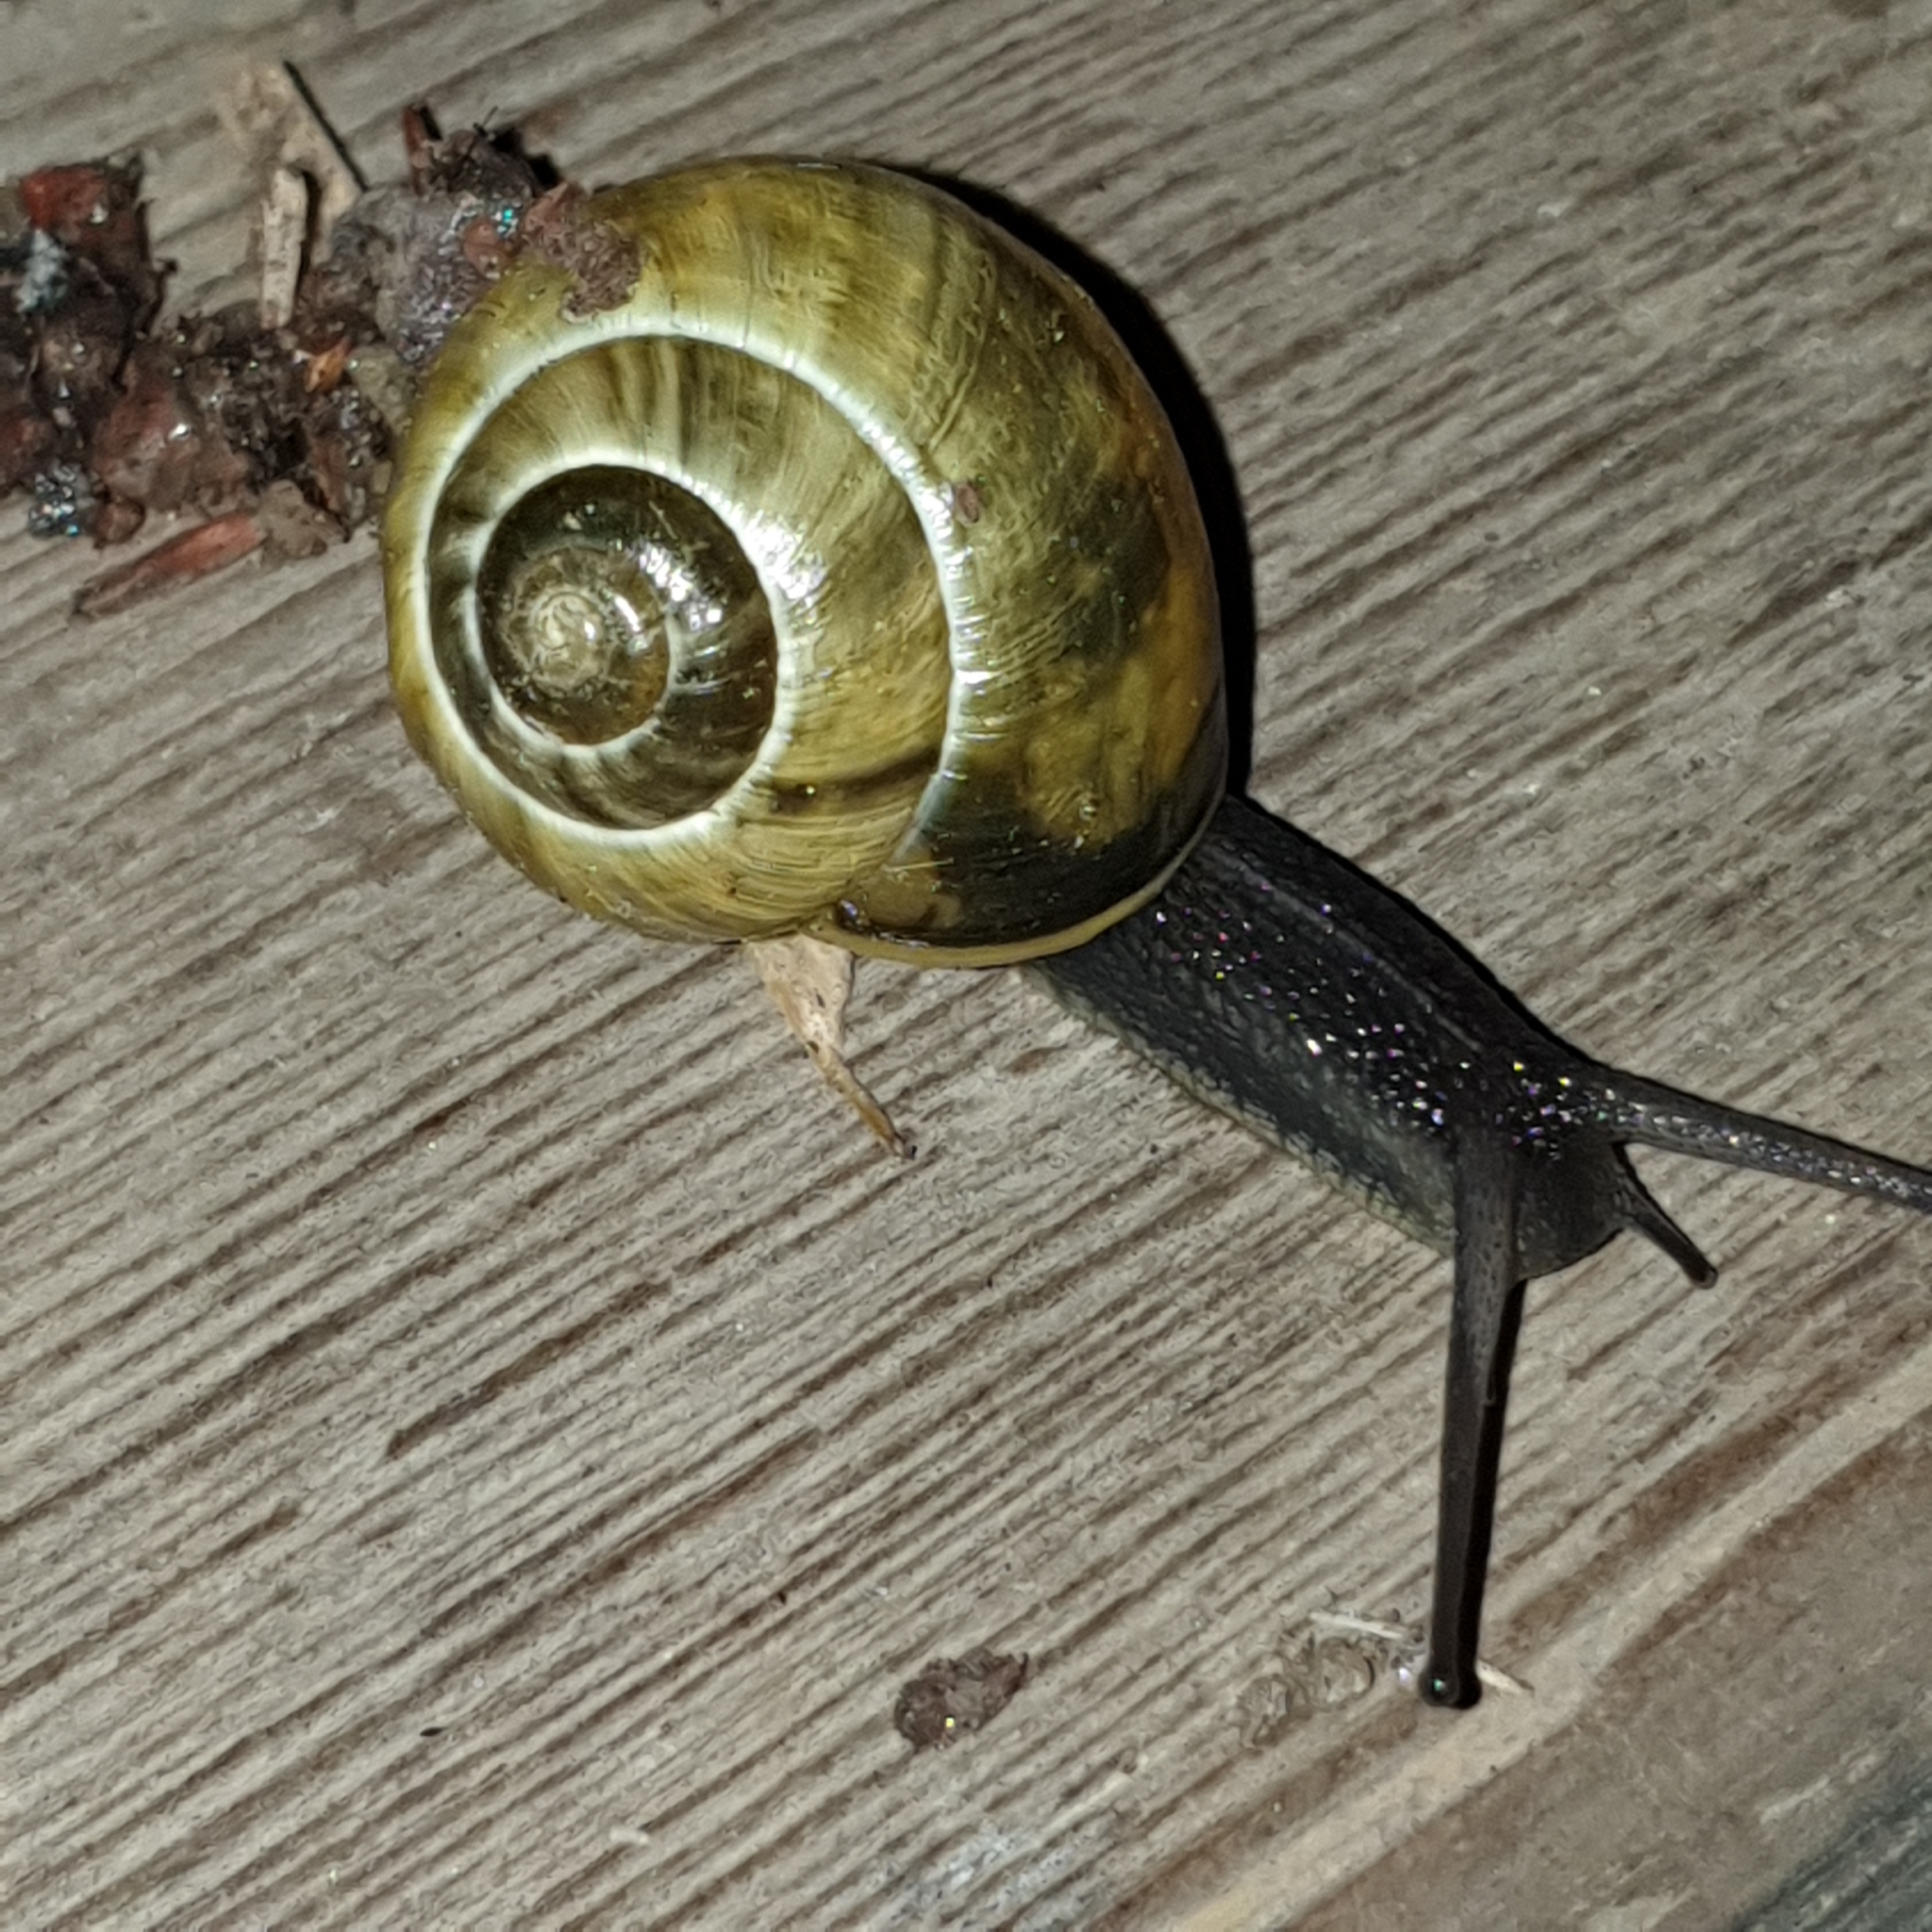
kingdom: Animalia
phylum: Mollusca
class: Gastropoda
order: Stylommatophora
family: Helicidae
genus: Cepaea
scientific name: Cepaea
